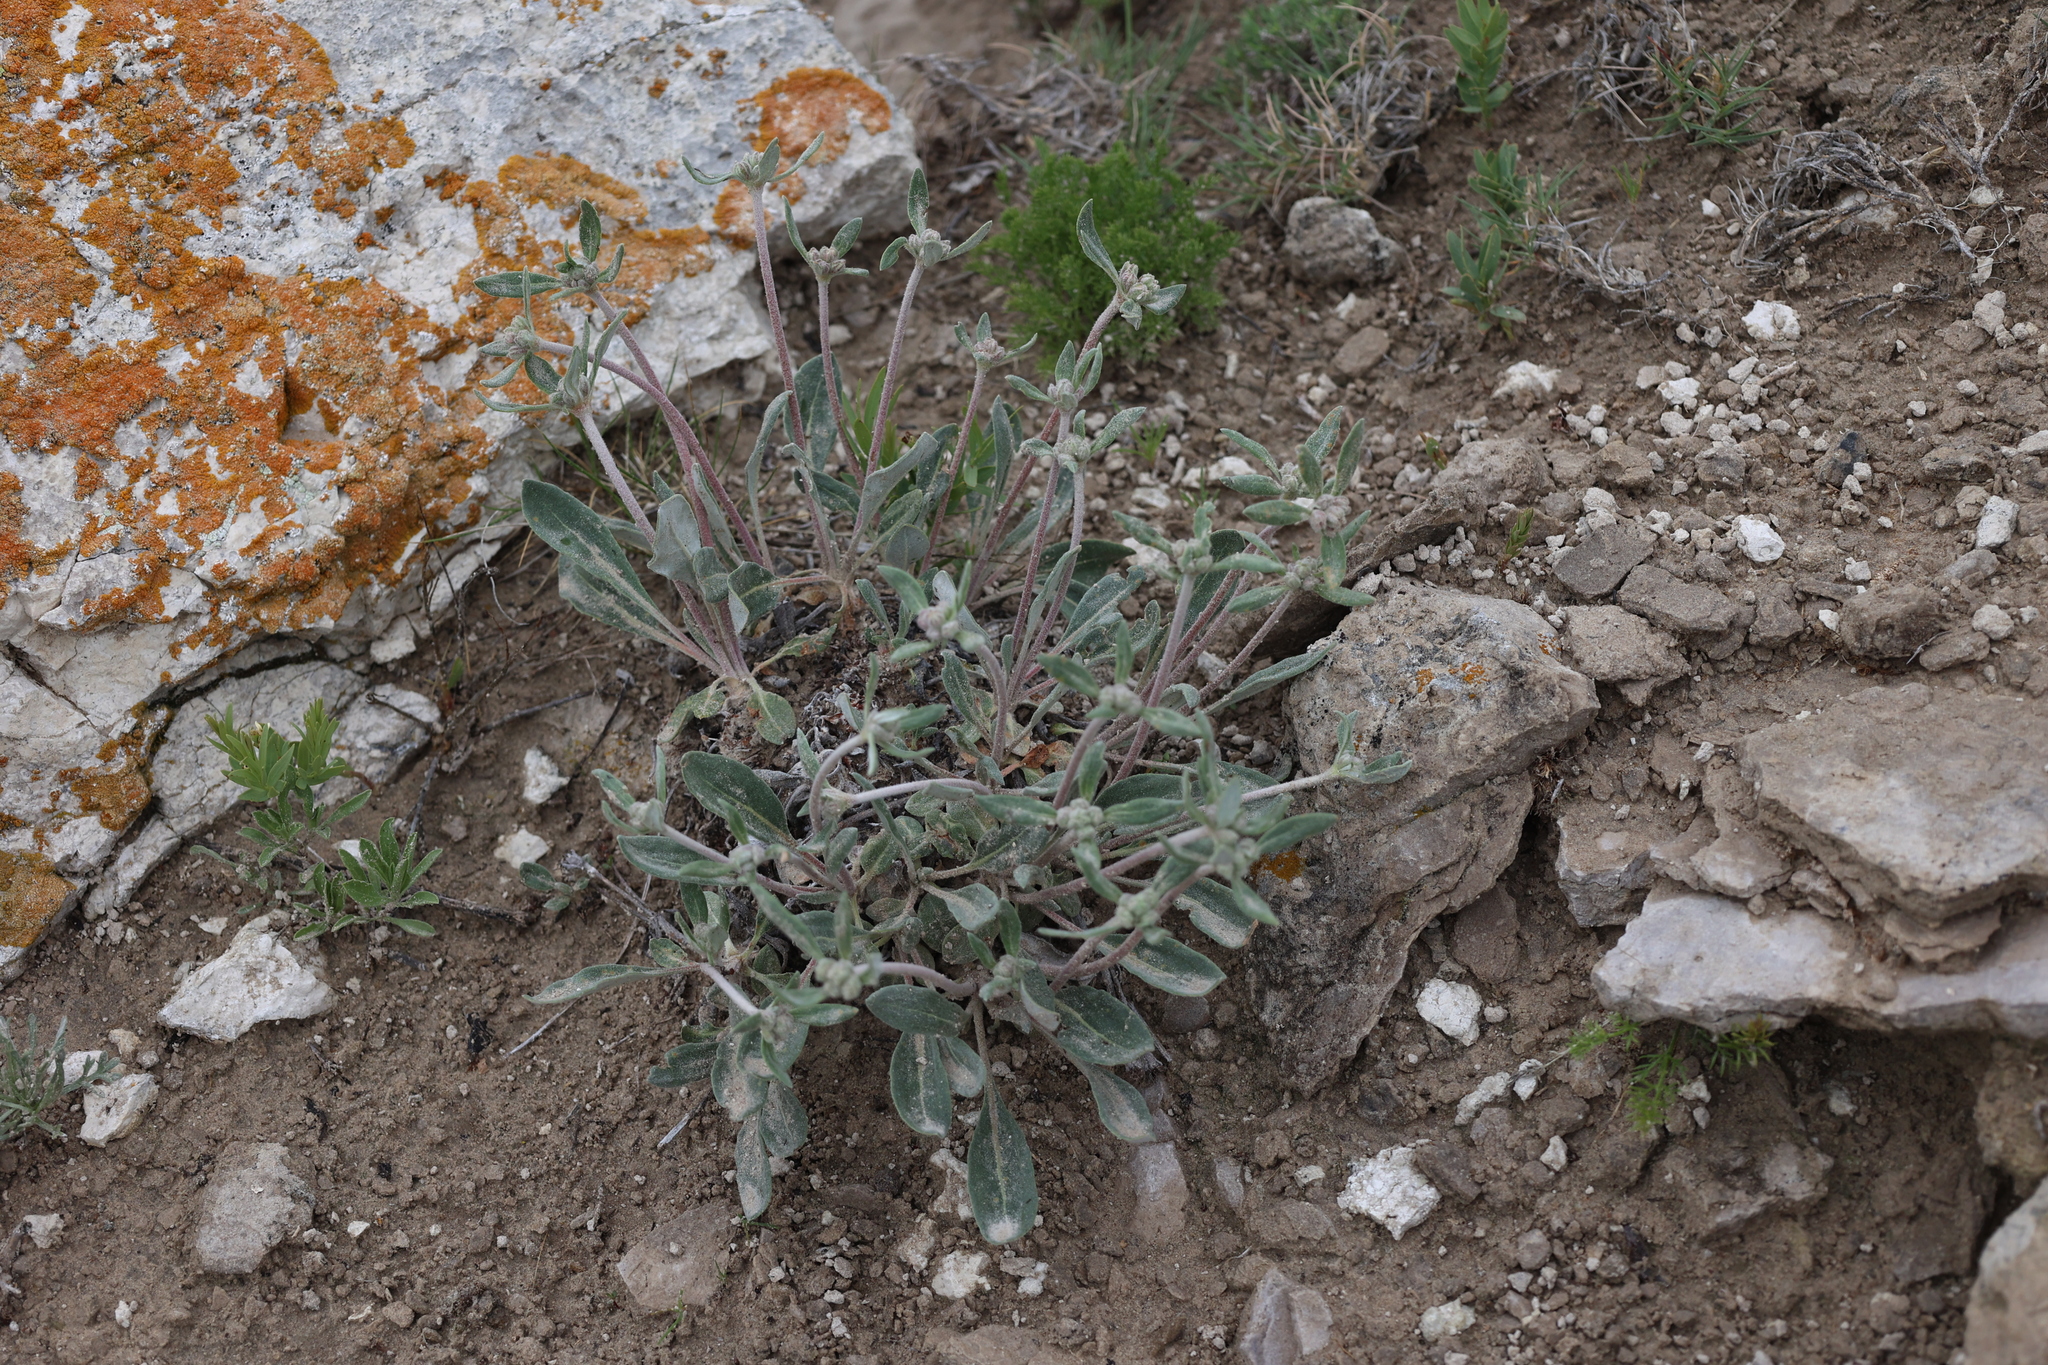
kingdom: Plantae
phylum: Tracheophyta
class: Magnoliopsida
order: Caryophyllales
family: Polygonaceae
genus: Eriogonum
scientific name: Eriogonum flavum
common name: Alpine golden wild buckwheat
